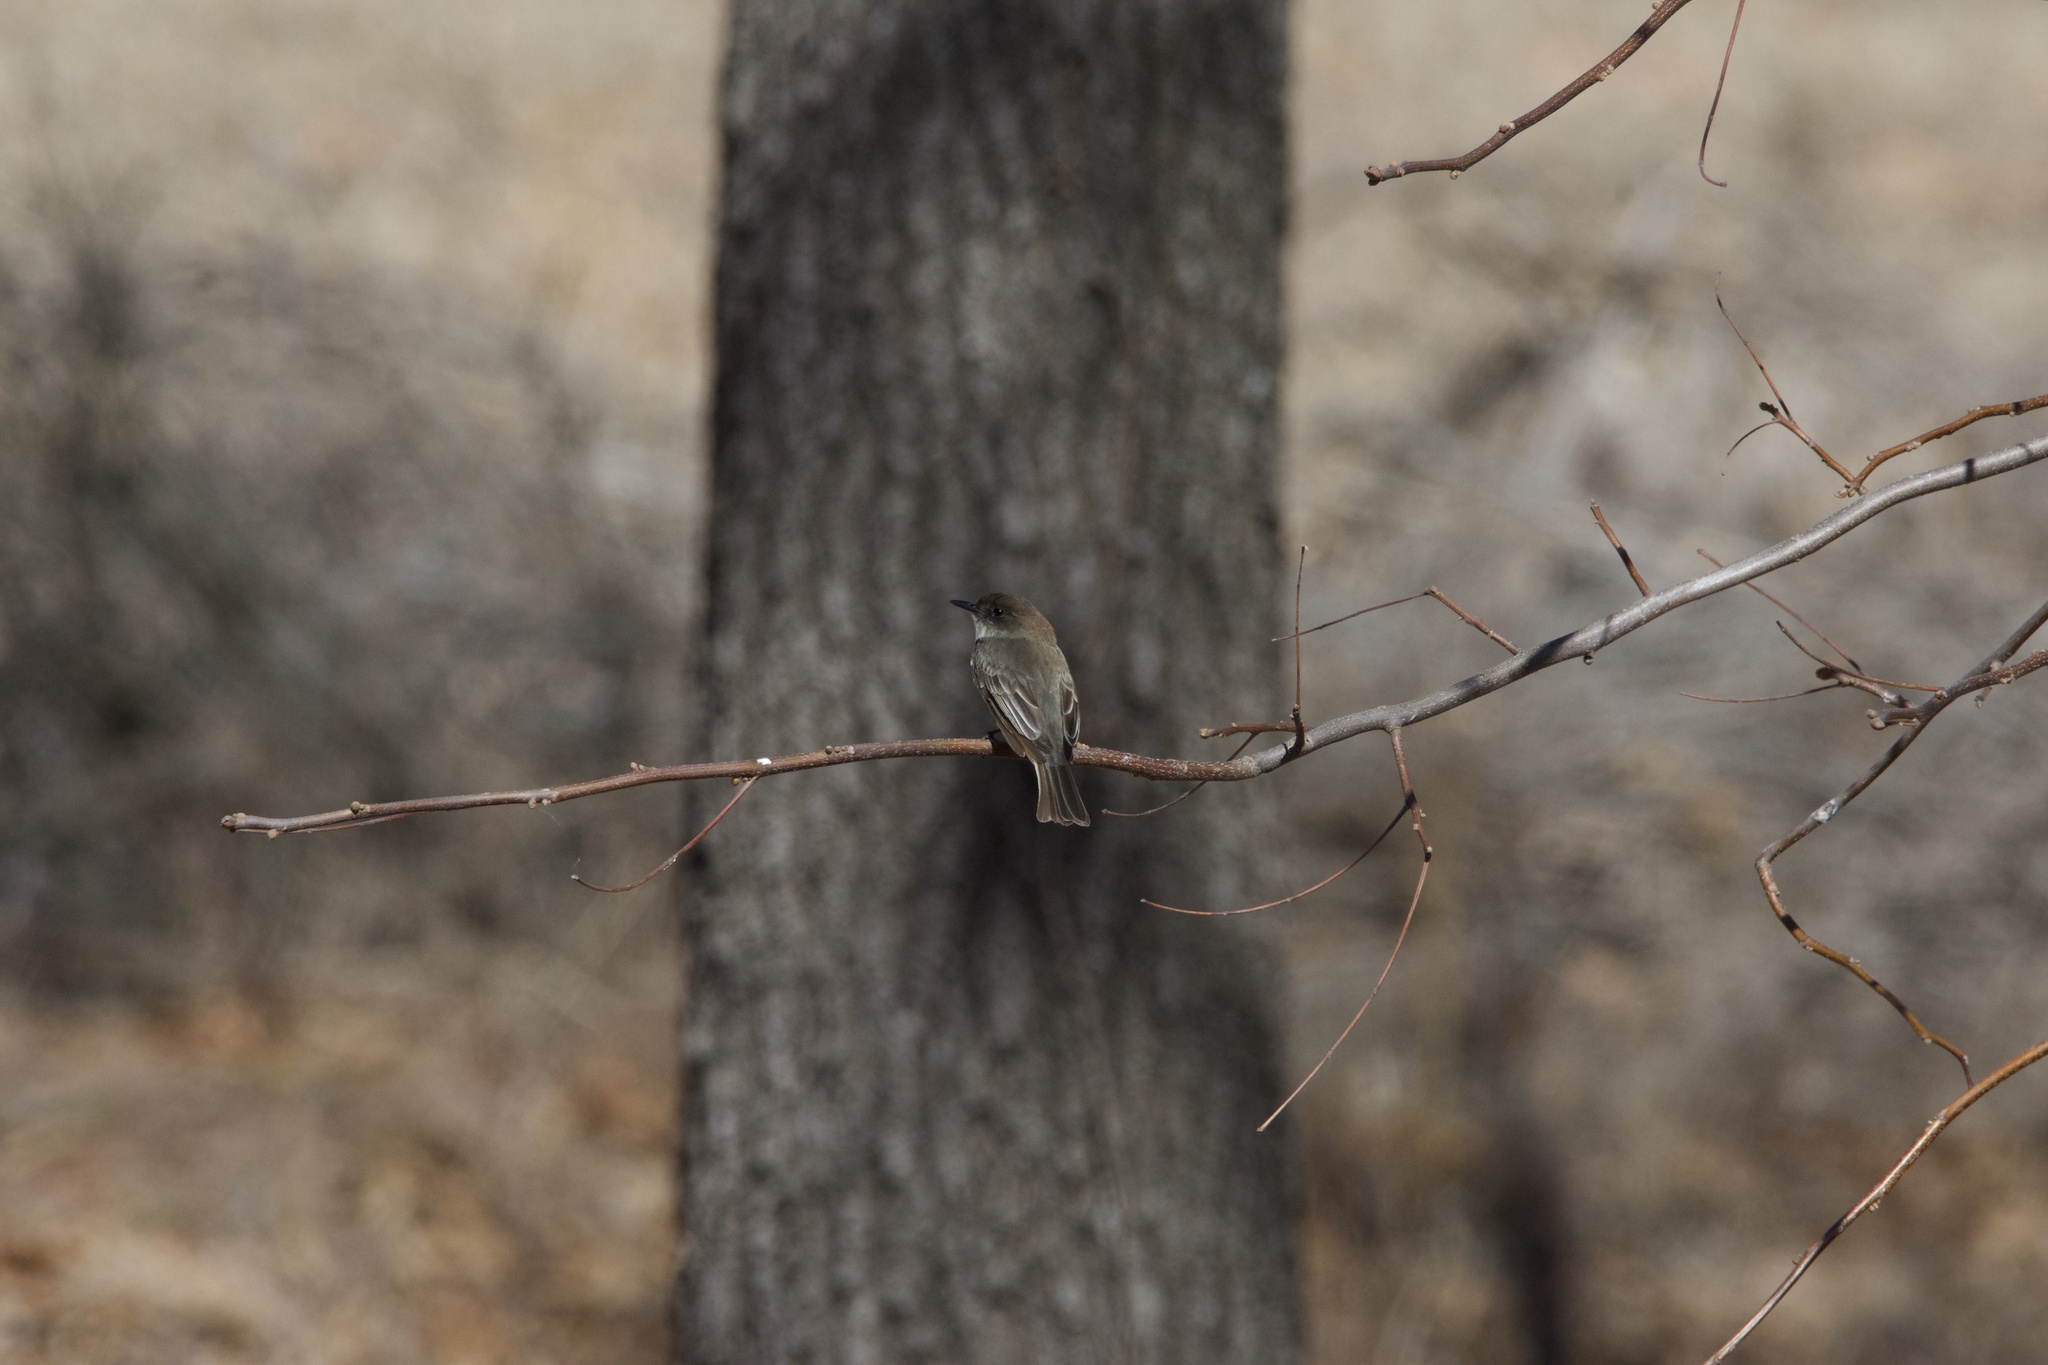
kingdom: Animalia
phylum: Chordata
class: Aves
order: Passeriformes
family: Tyrannidae
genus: Sayornis
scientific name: Sayornis phoebe
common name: Eastern phoebe
